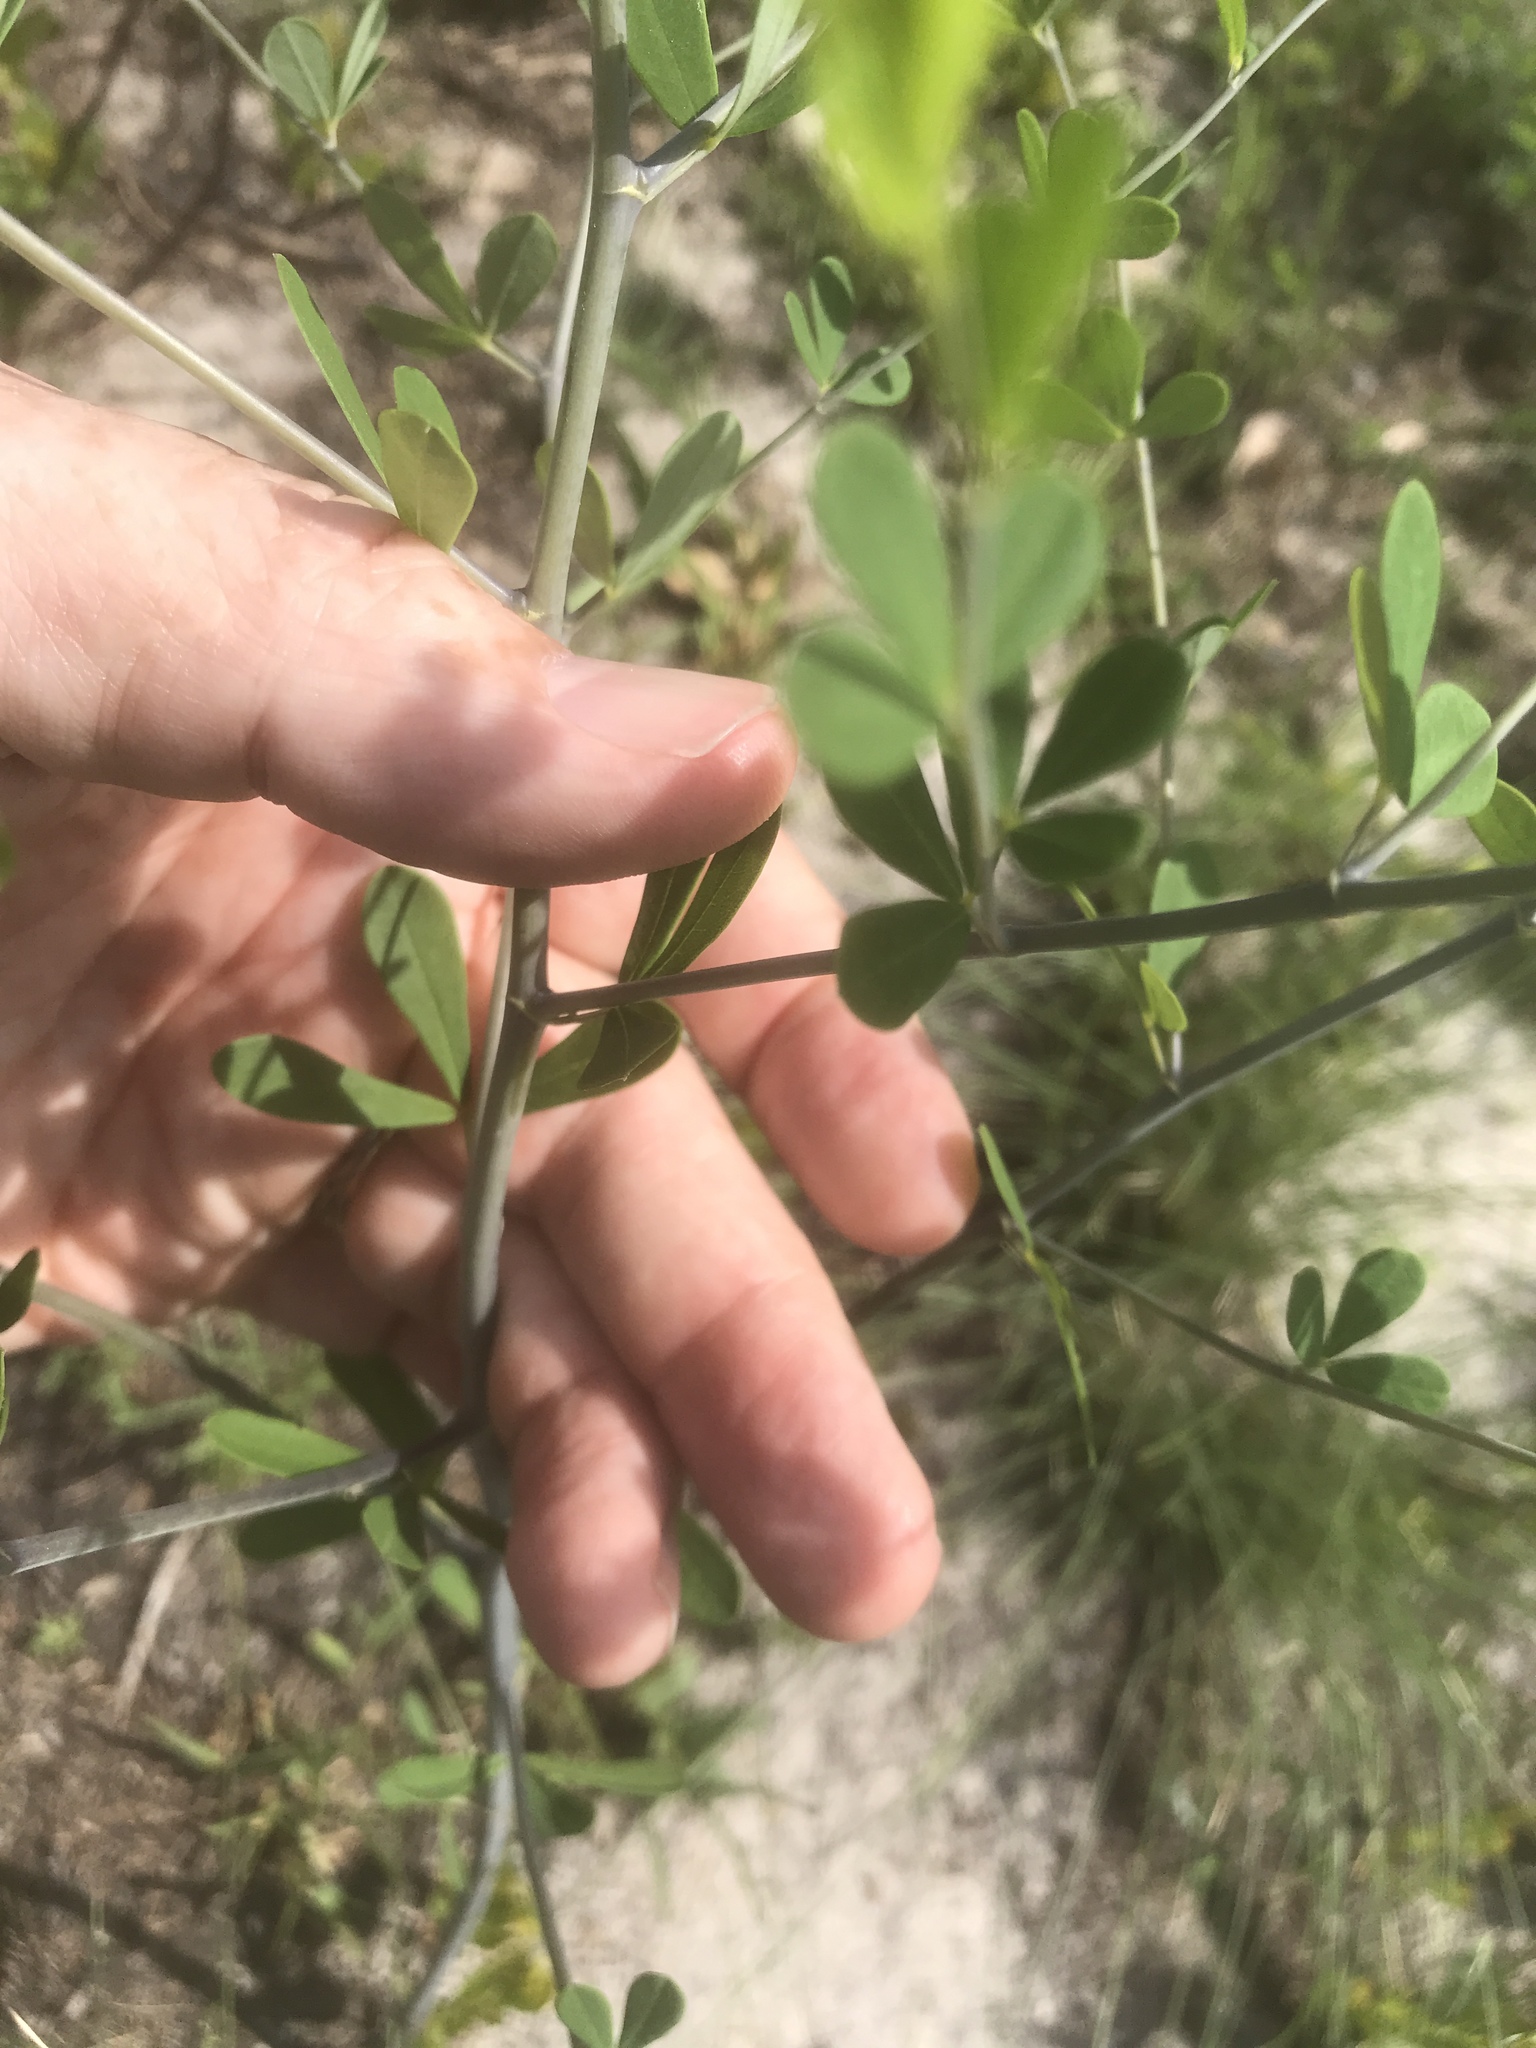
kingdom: Plantae
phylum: Tracheophyta
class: Magnoliopsida
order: Fabales
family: Fabaceae
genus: Baptisia
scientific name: Baptisia tinctoria
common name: Wild indigo
